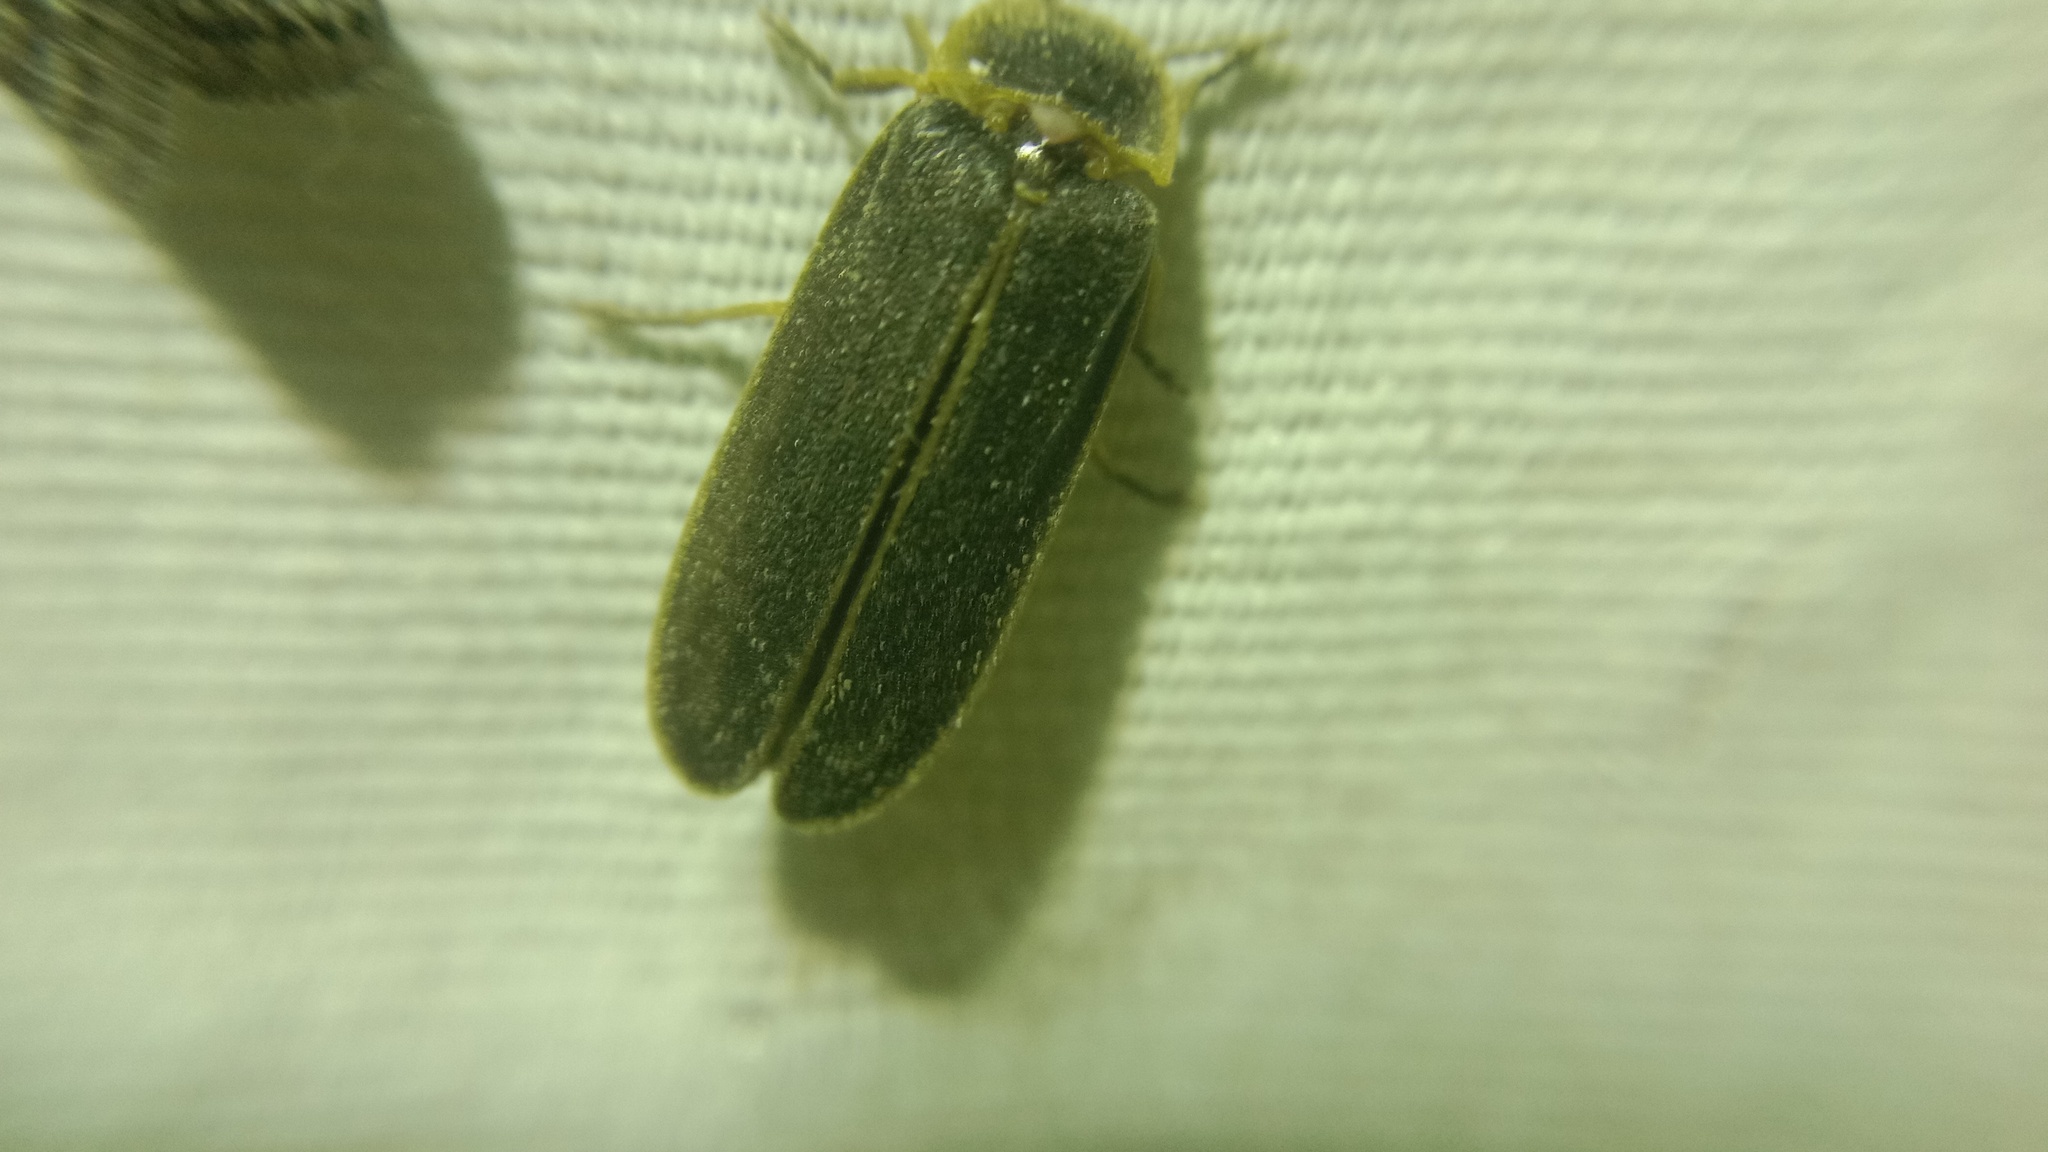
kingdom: Animalia
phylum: Arthropoda
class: Insecta
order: Coleoptera
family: Lampyridae
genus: Lampyris
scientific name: Lampyris noctiluca
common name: Glow-worm
